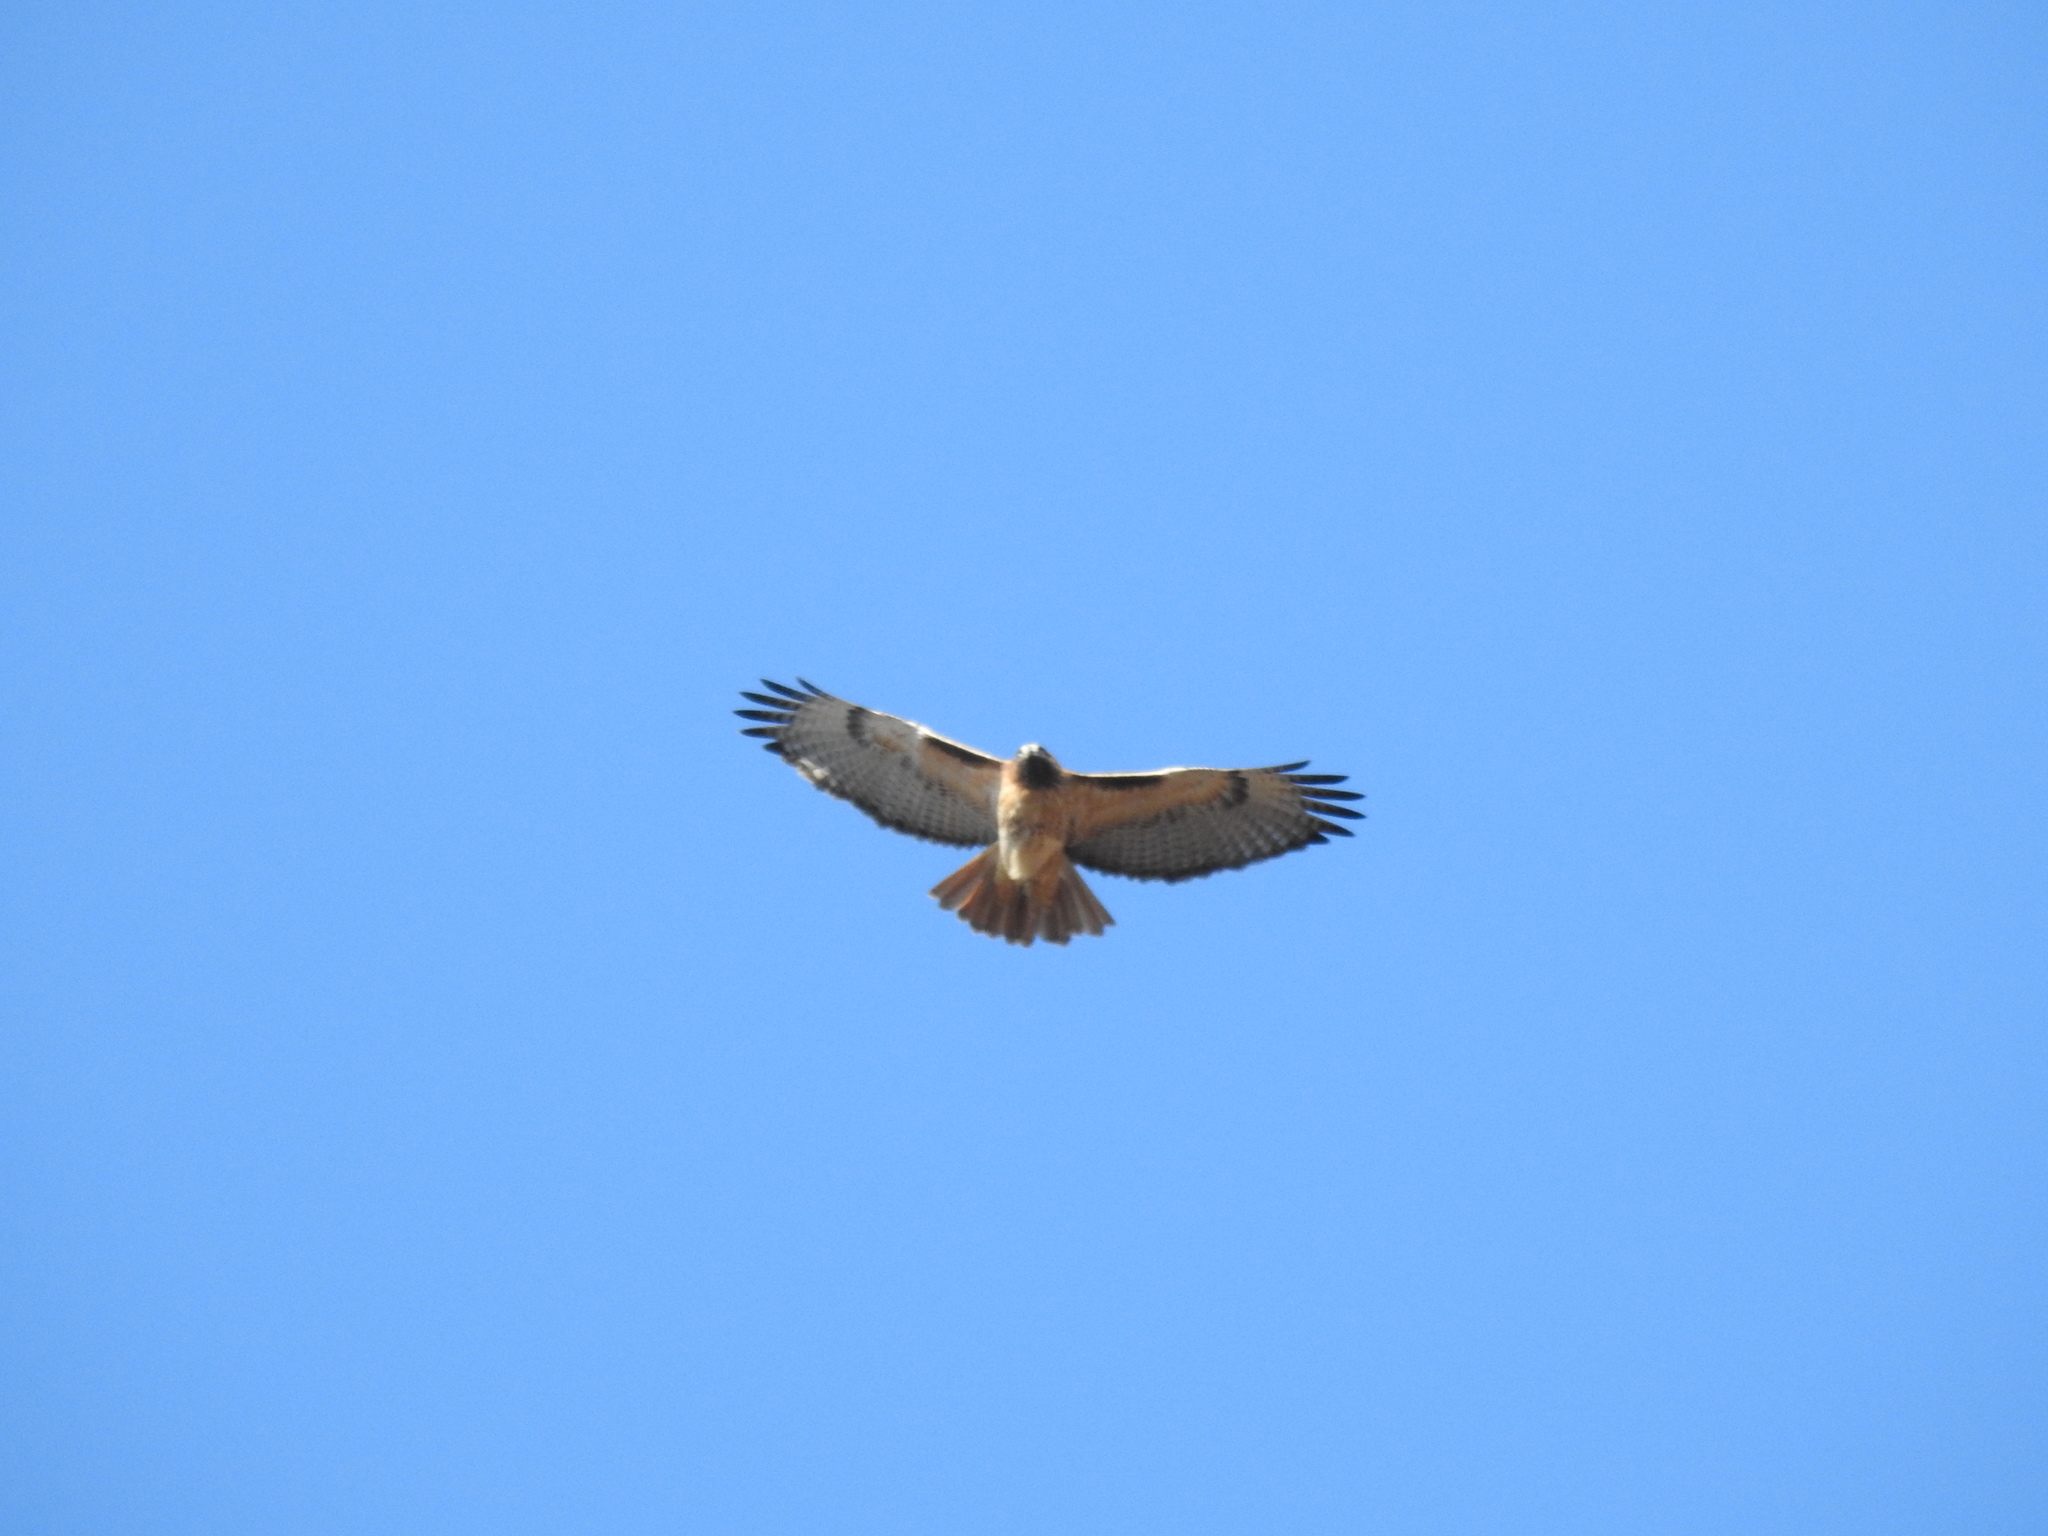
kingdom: Animalia
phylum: Chordata
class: Aves
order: Accipitriformes
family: Accipitridae
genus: Buteo
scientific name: Buteo jamaicensis
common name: Red-tailed hawk
